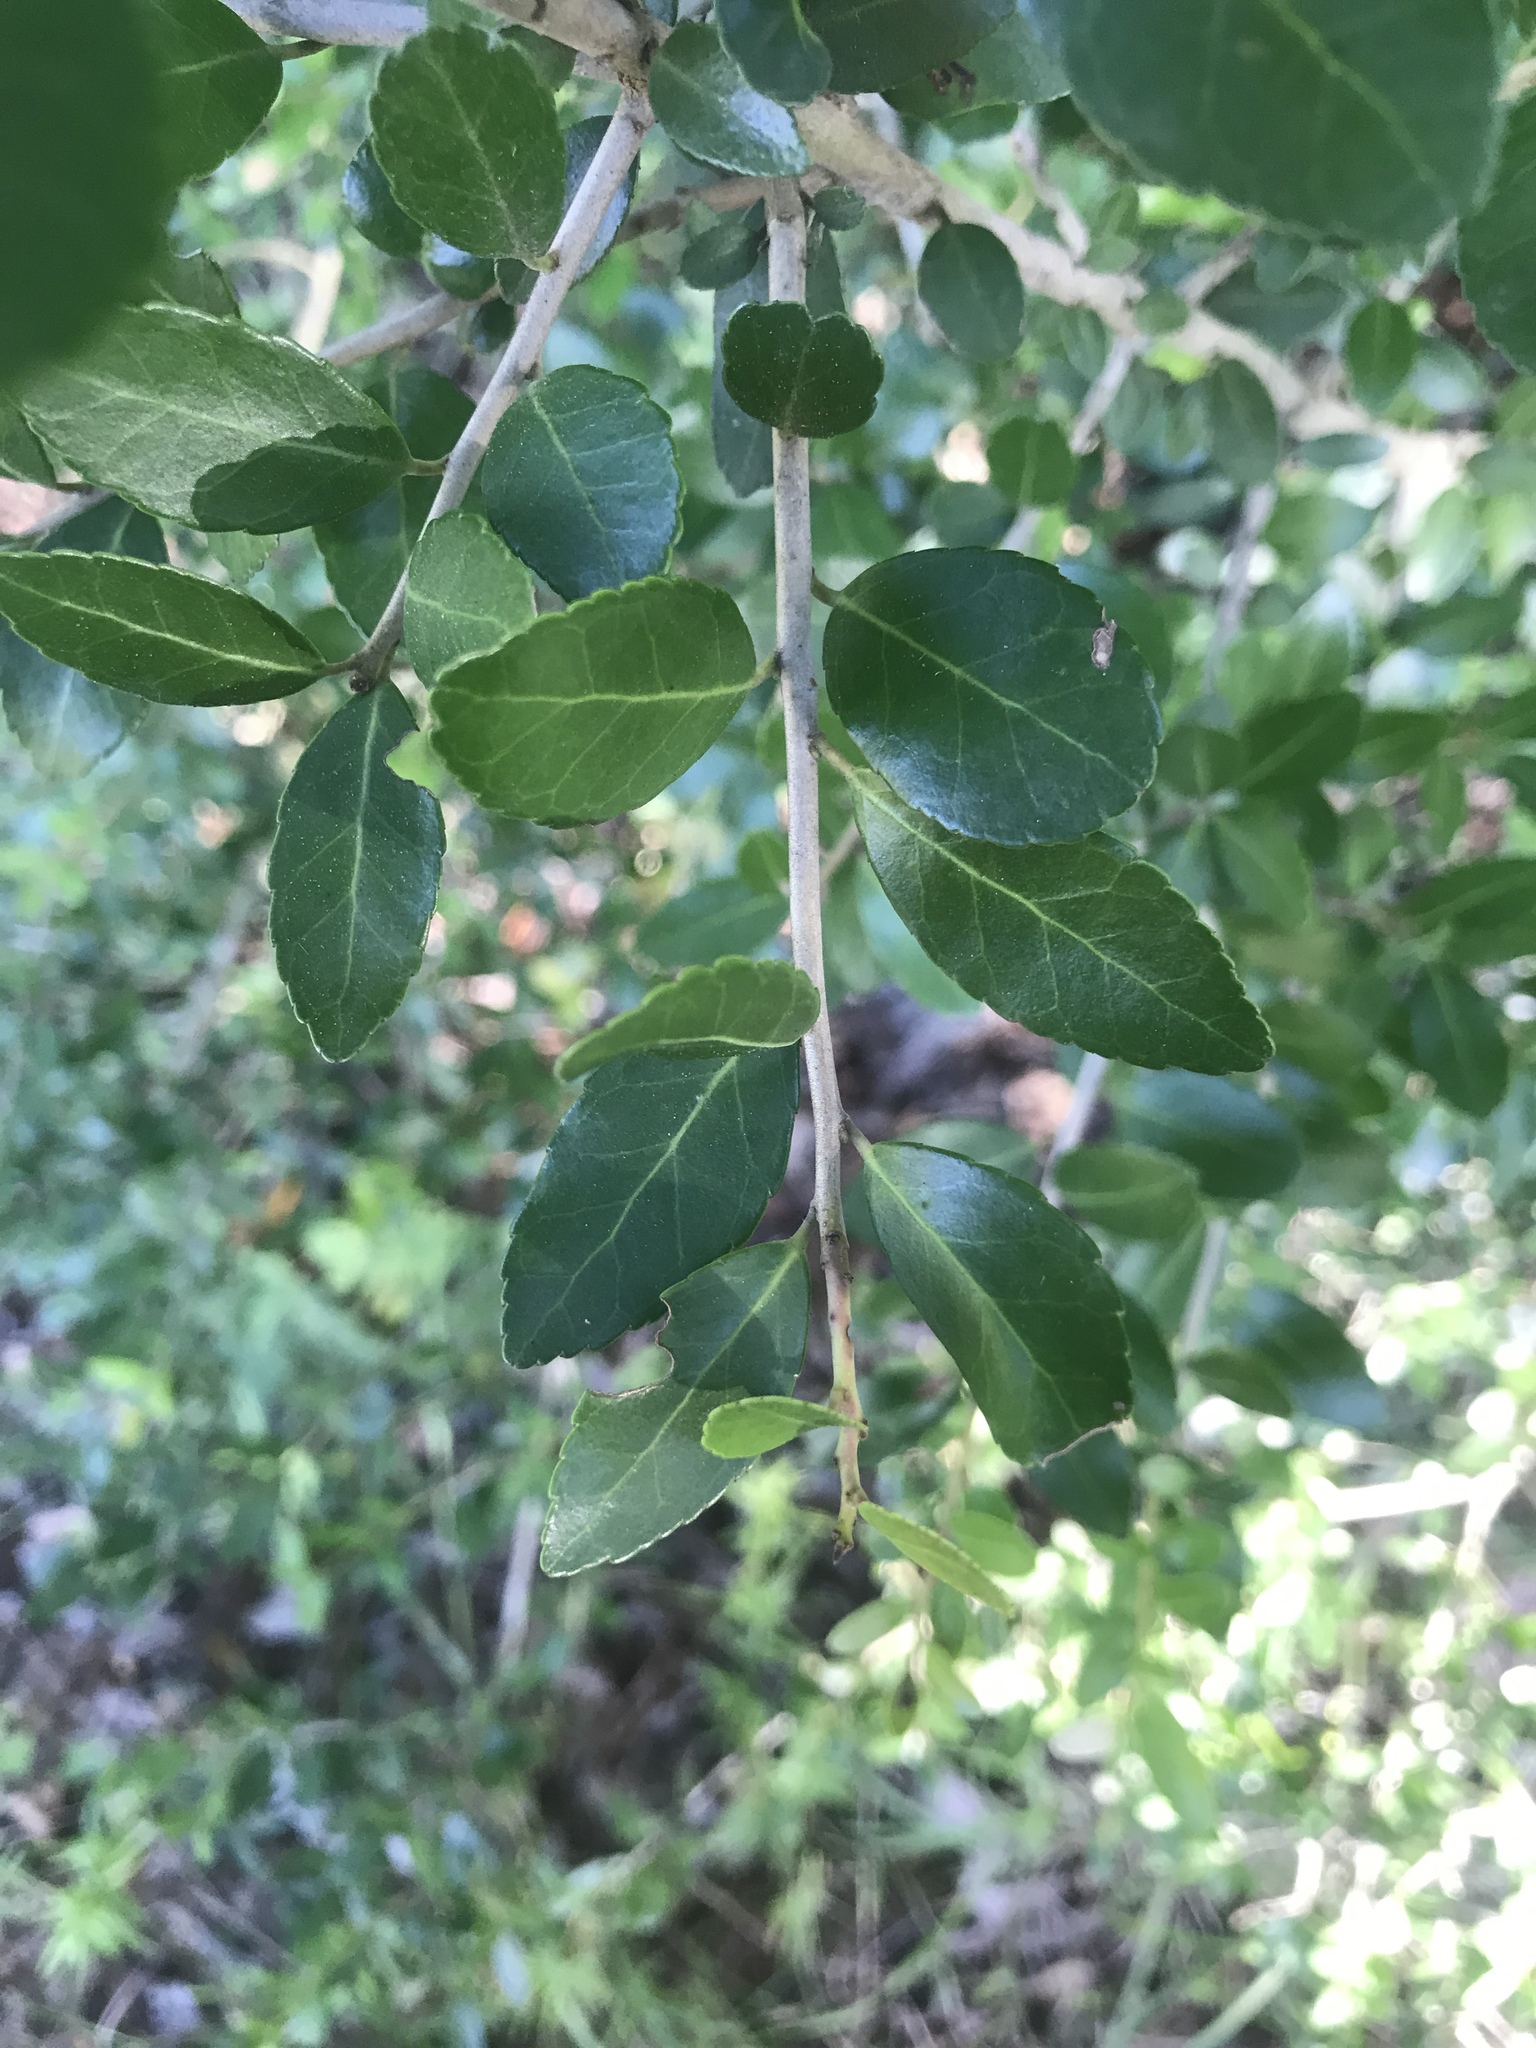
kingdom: Plantae
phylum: Tracheophyta
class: Magnoliopsida
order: Aquifoliales
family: Aquifoliaceae
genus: Ilex
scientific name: Ilex vomitoria
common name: Yaupon holly
